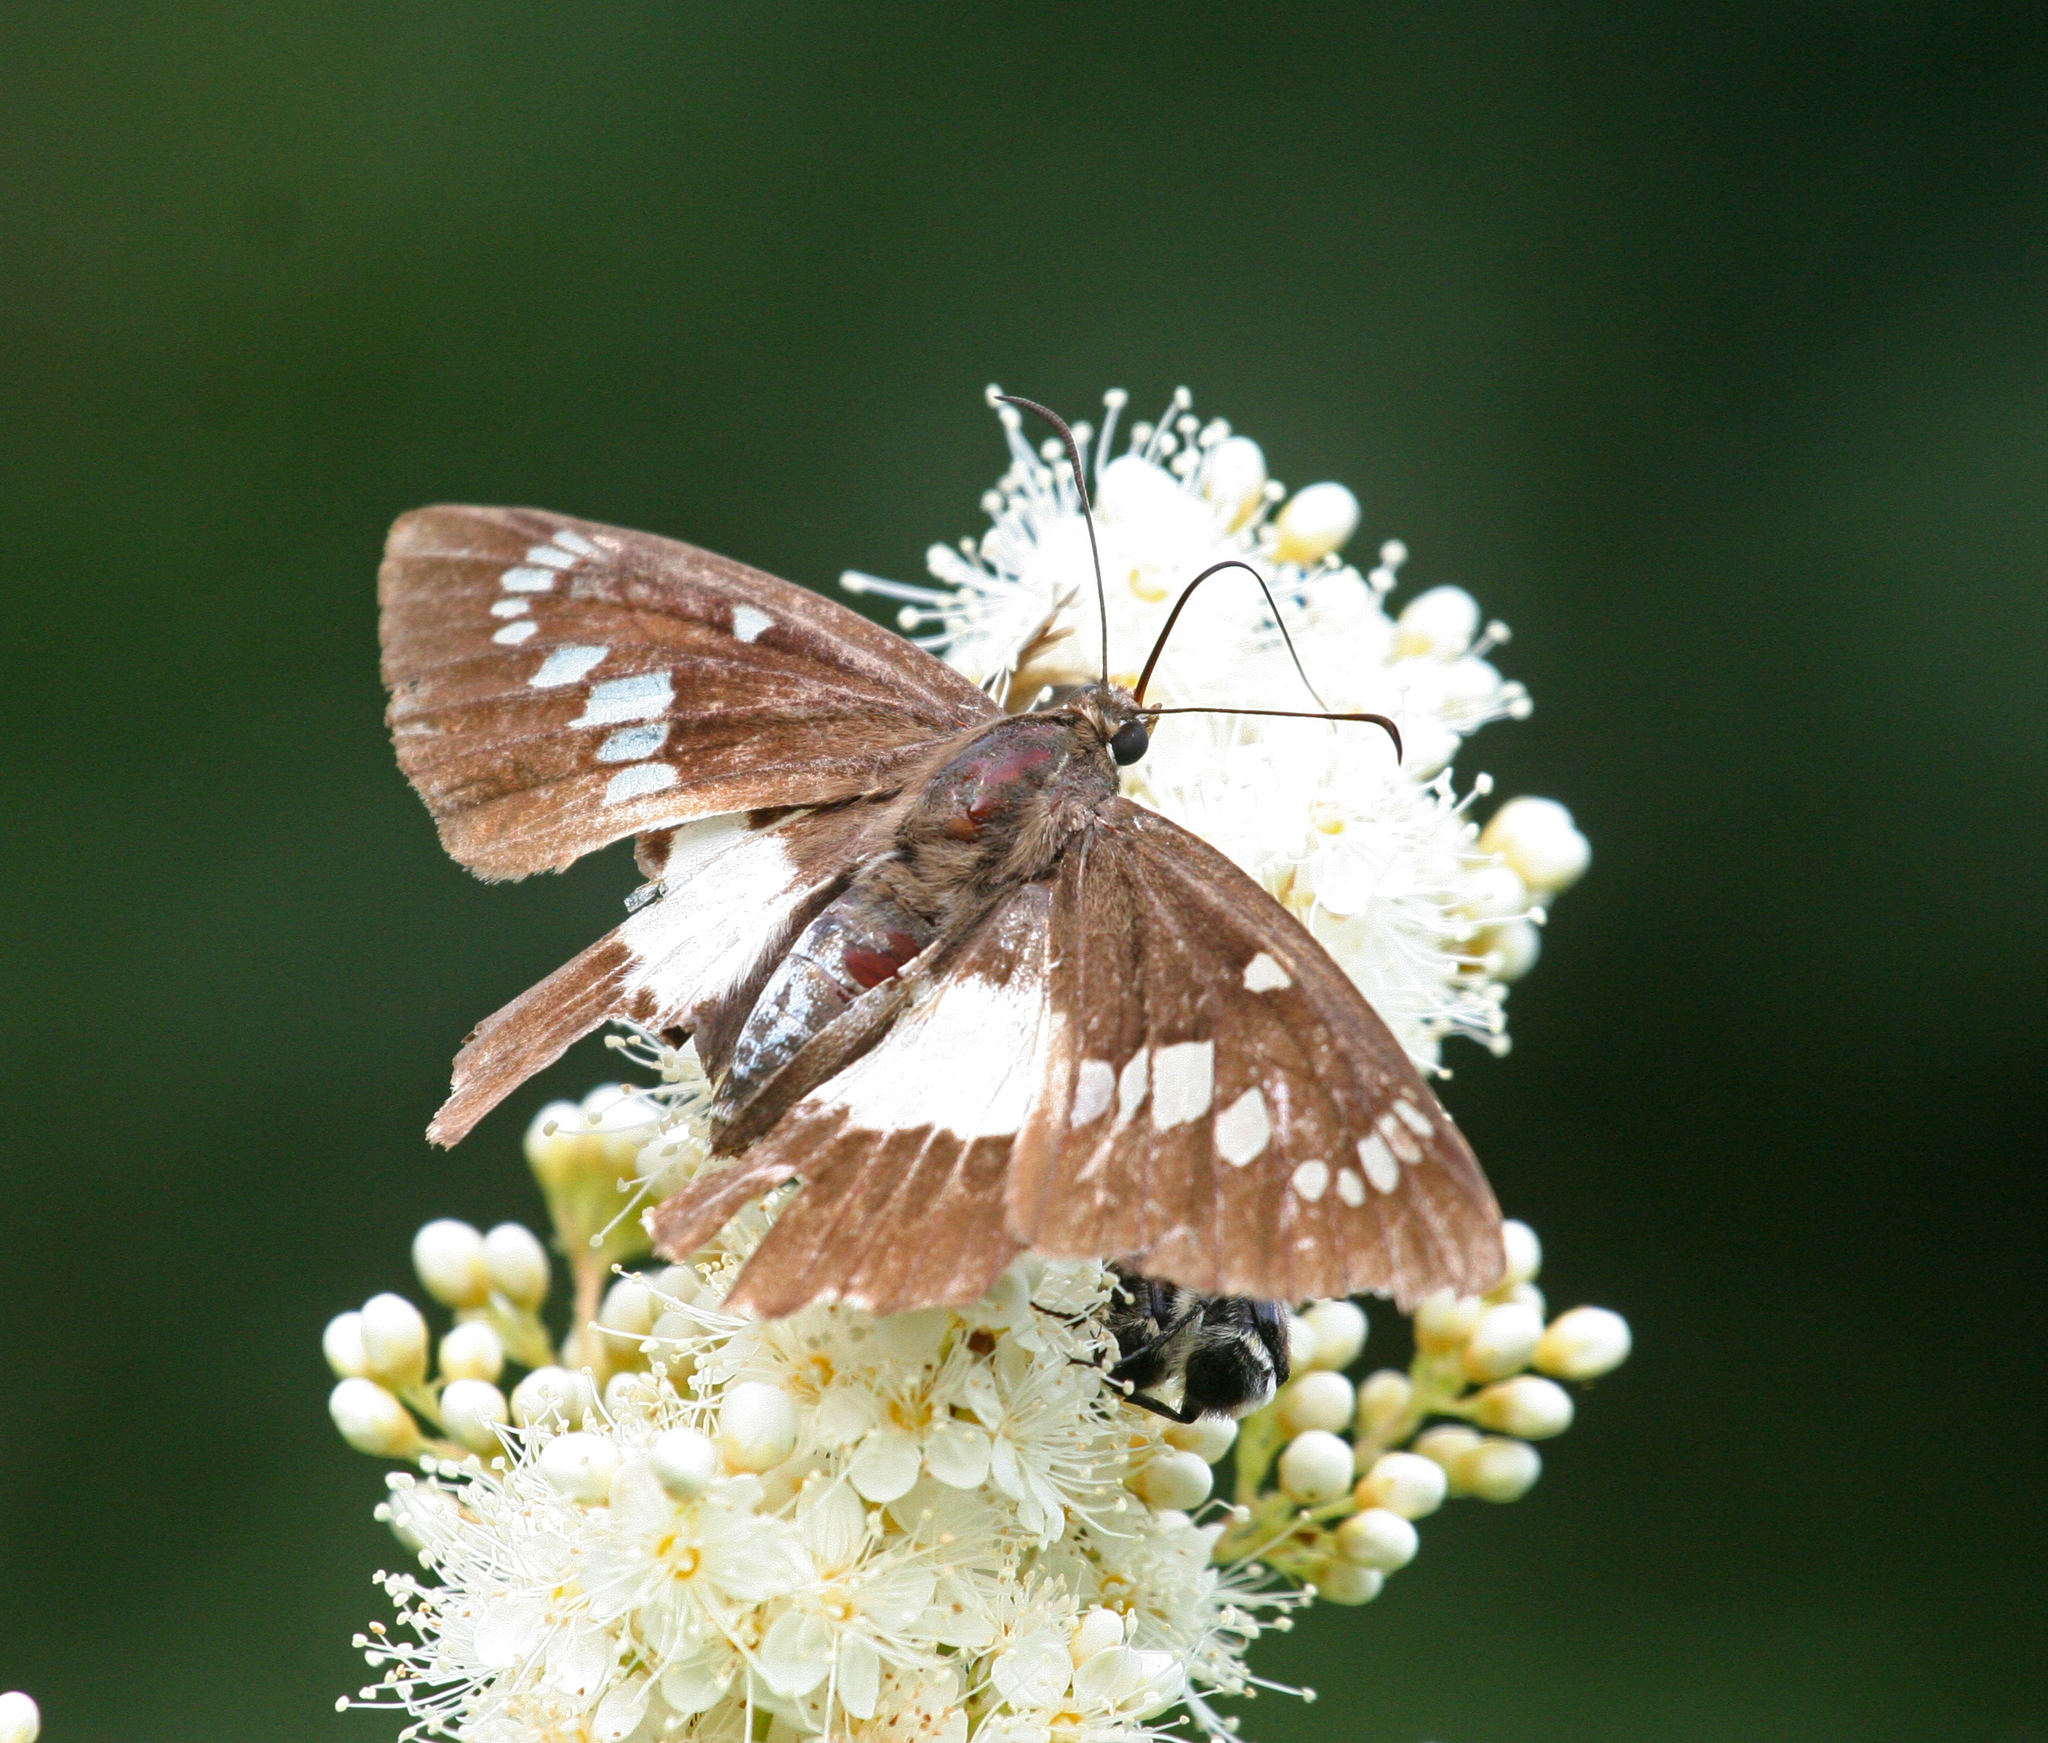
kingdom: Animalia
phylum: Arthropoda
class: Insecta
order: Lepidoptera
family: Hesperiidae
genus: Satarupa
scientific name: Satarupa nymphalis
